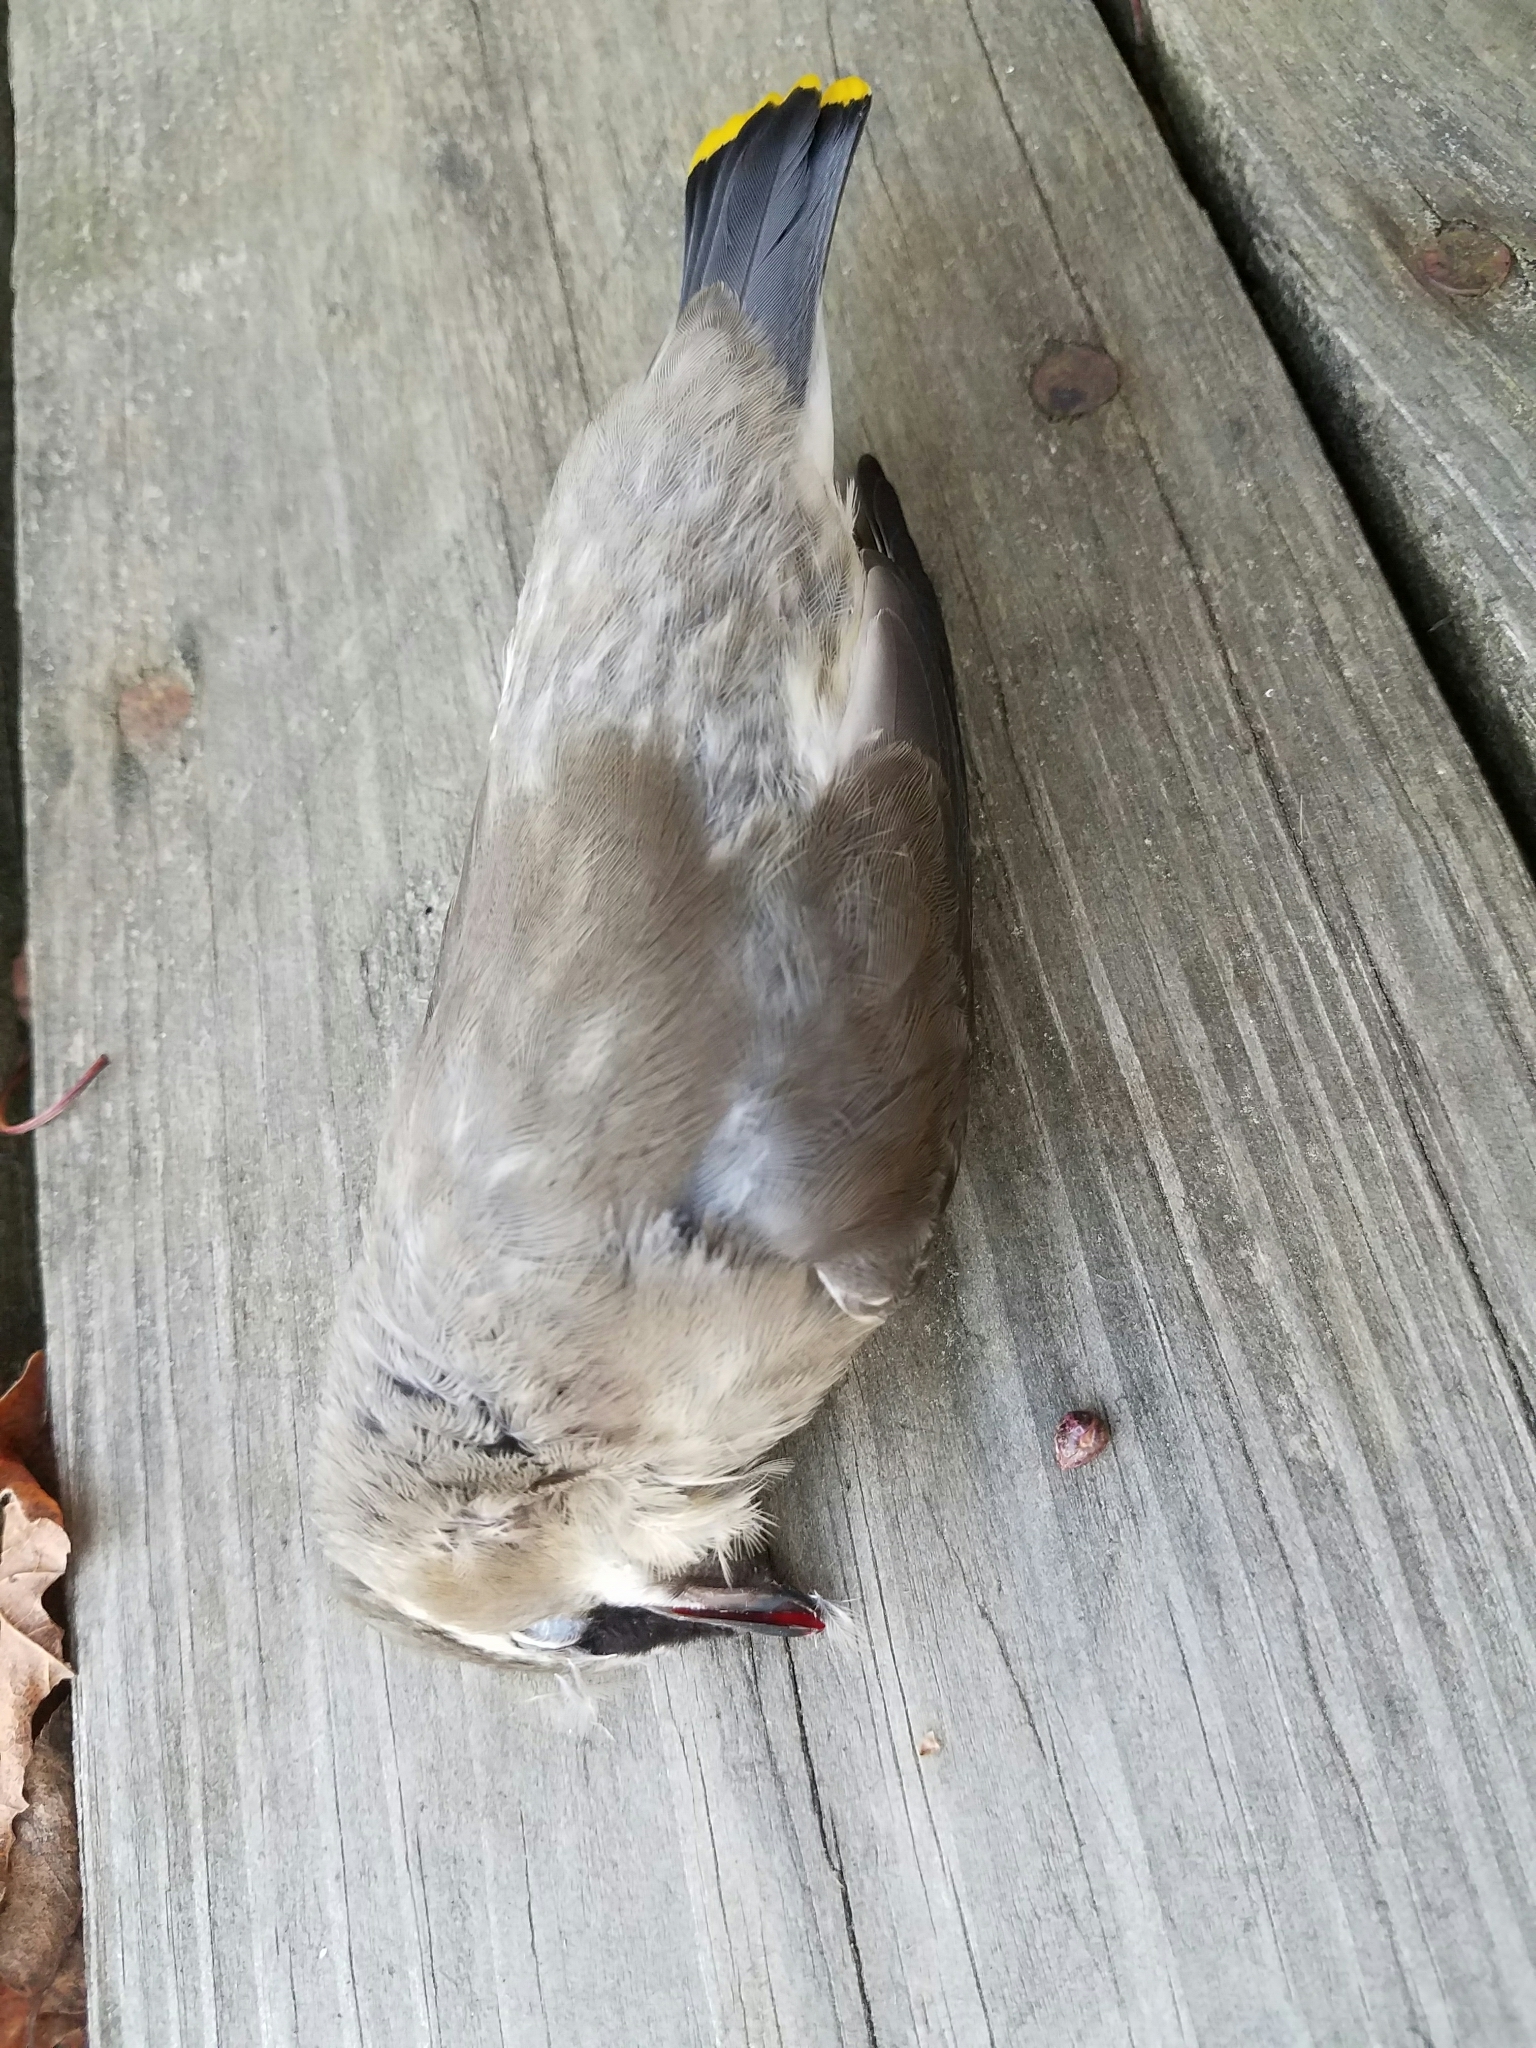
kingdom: Animalia
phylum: Chordata
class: Aves
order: Passeriformes
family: Bombycillidae
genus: Bombycilla
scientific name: Bombycilla cedrorum
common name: Cedar waxwing
